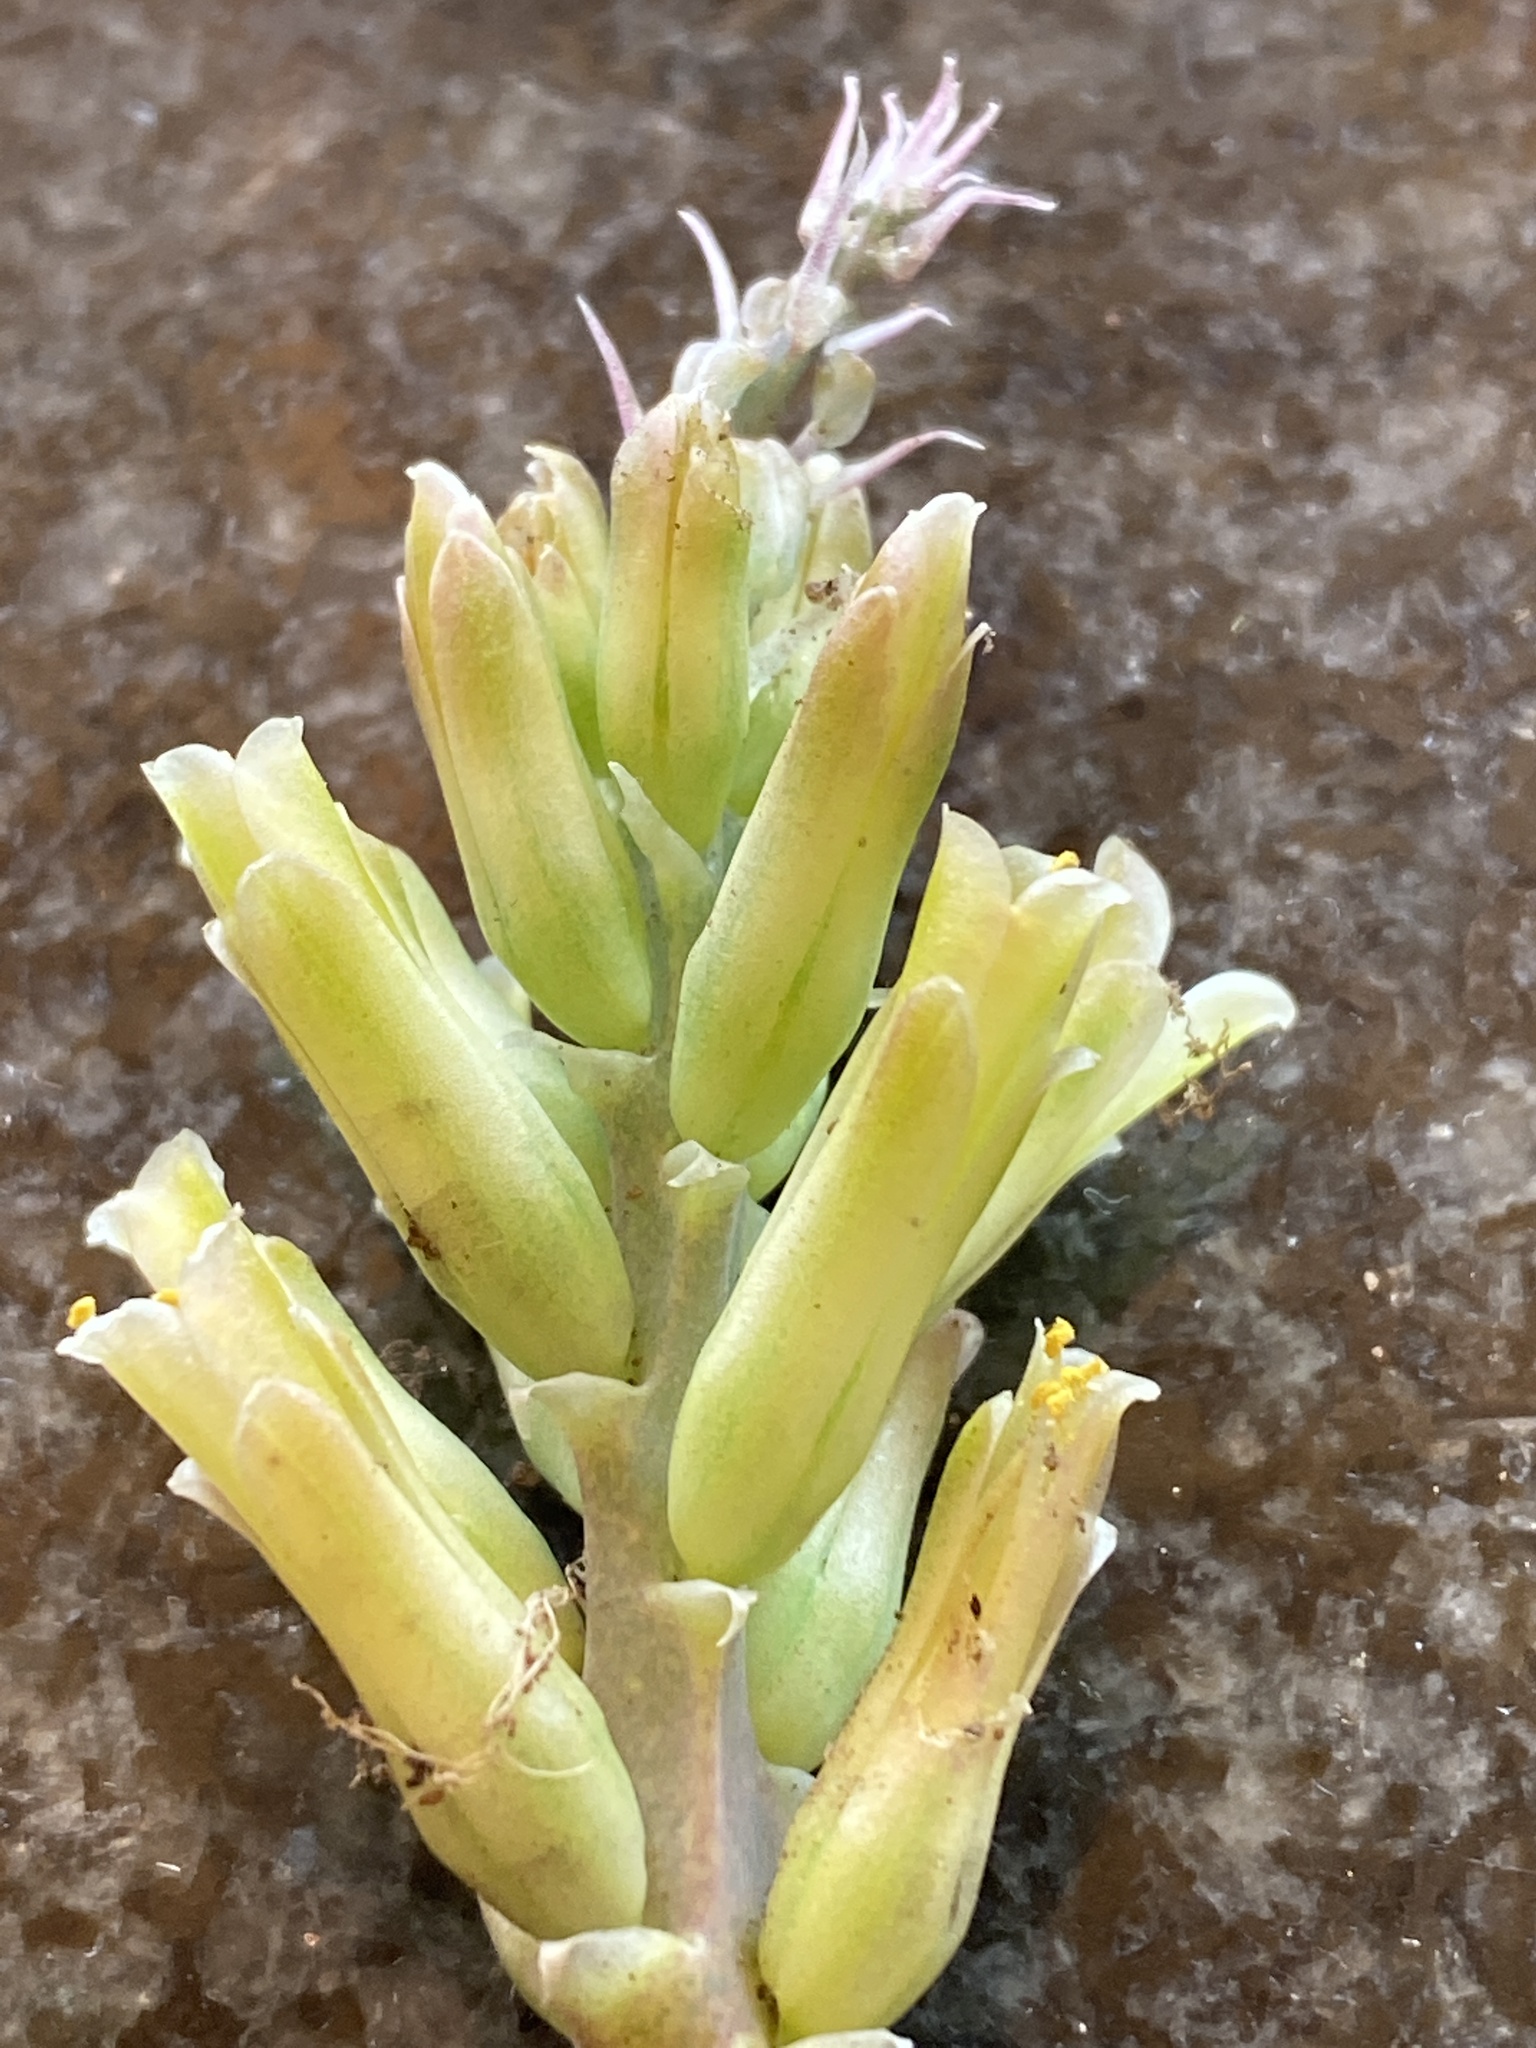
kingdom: Plantae
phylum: Tracheophyta
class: Liliopsida
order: Asparagales
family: Asparagaceae
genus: Lachenalia
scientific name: Lachenalia orchioides
